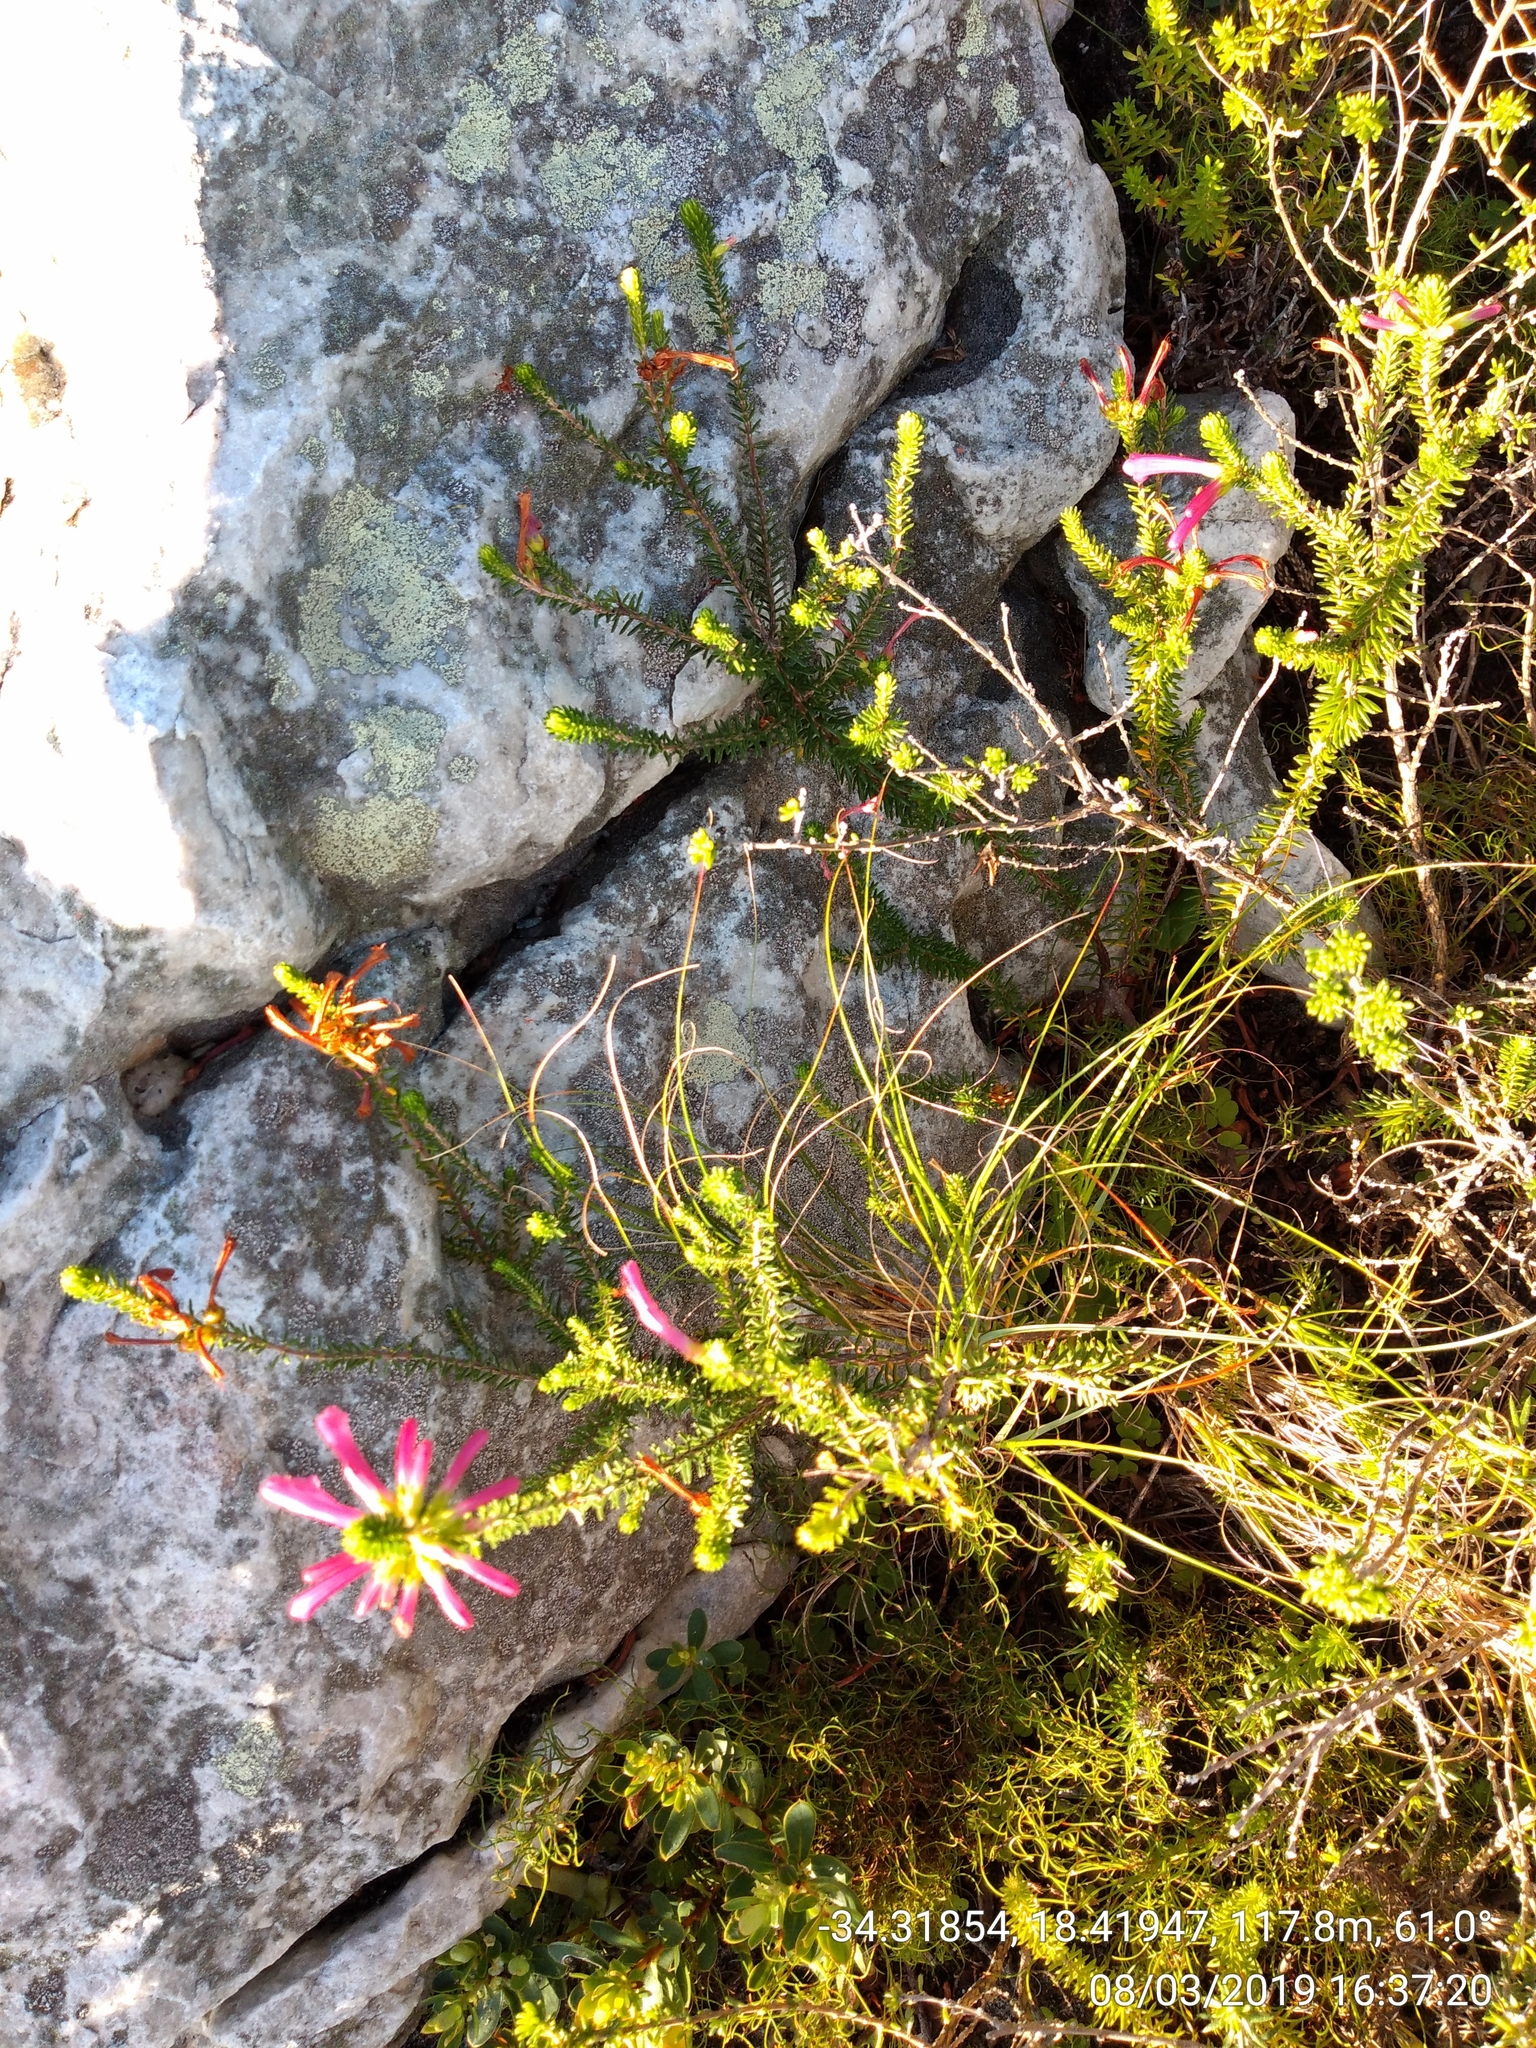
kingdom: Plantae
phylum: Tracheophyta
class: Magnoliopsida
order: Ericales
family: Ericaceae
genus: Erica
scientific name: Erica abietina
